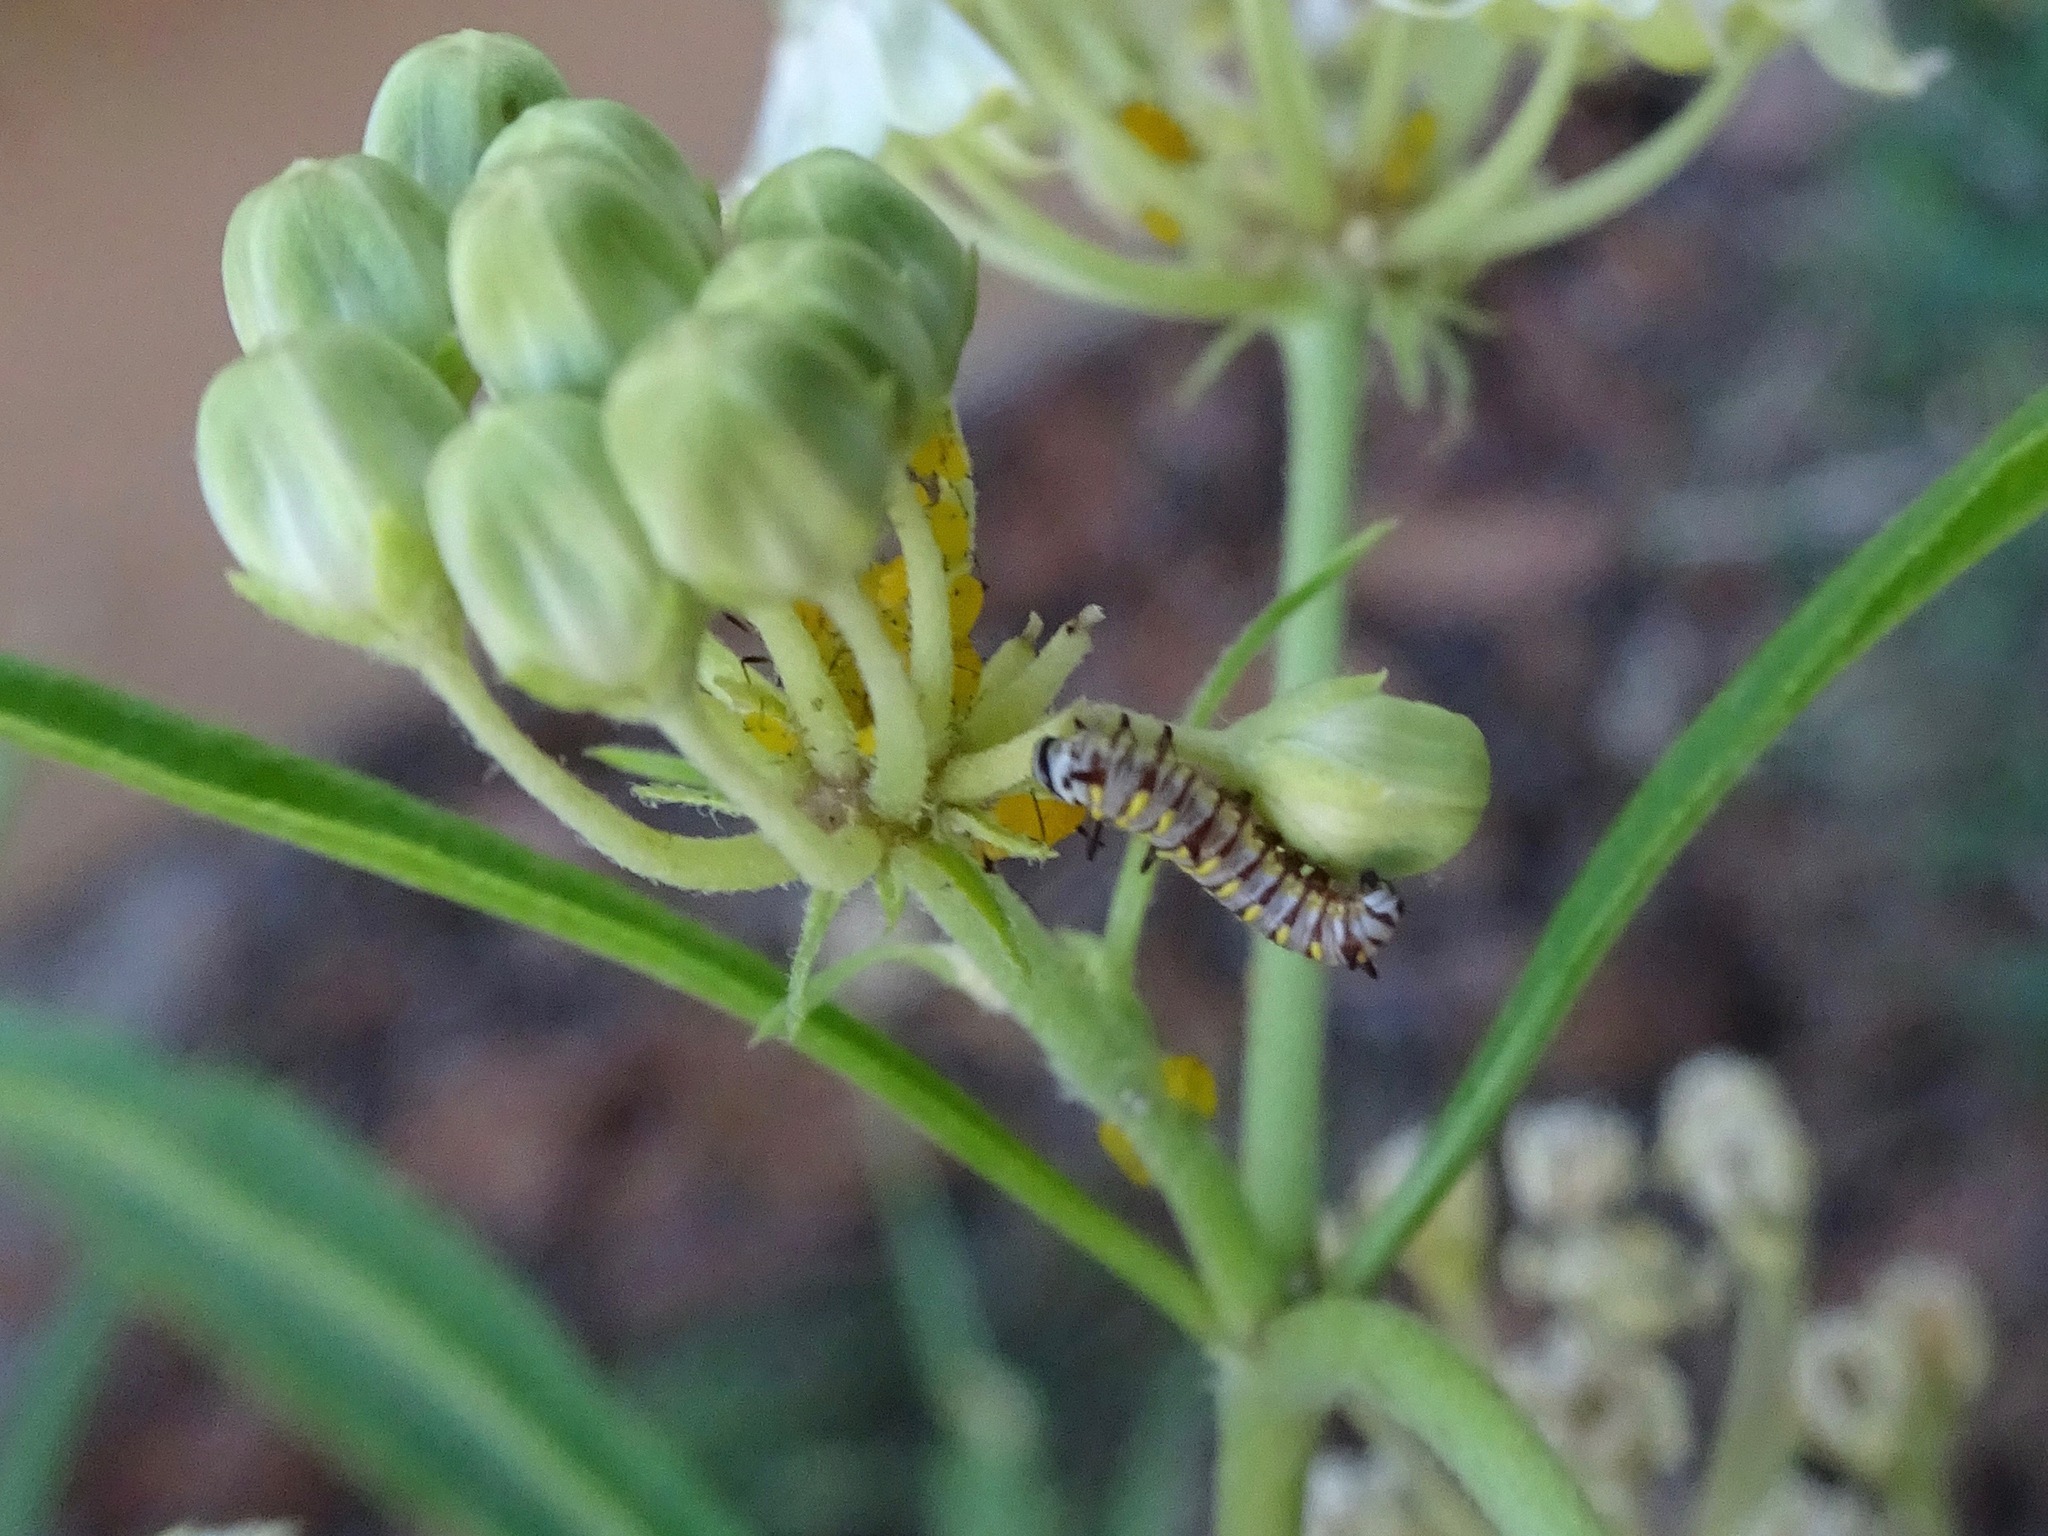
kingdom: Animalia
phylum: Arthropoda
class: Insecta
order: Lepidoptera
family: Nymphalidae
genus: Danaus
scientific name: Danaus gilippus
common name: Queen
